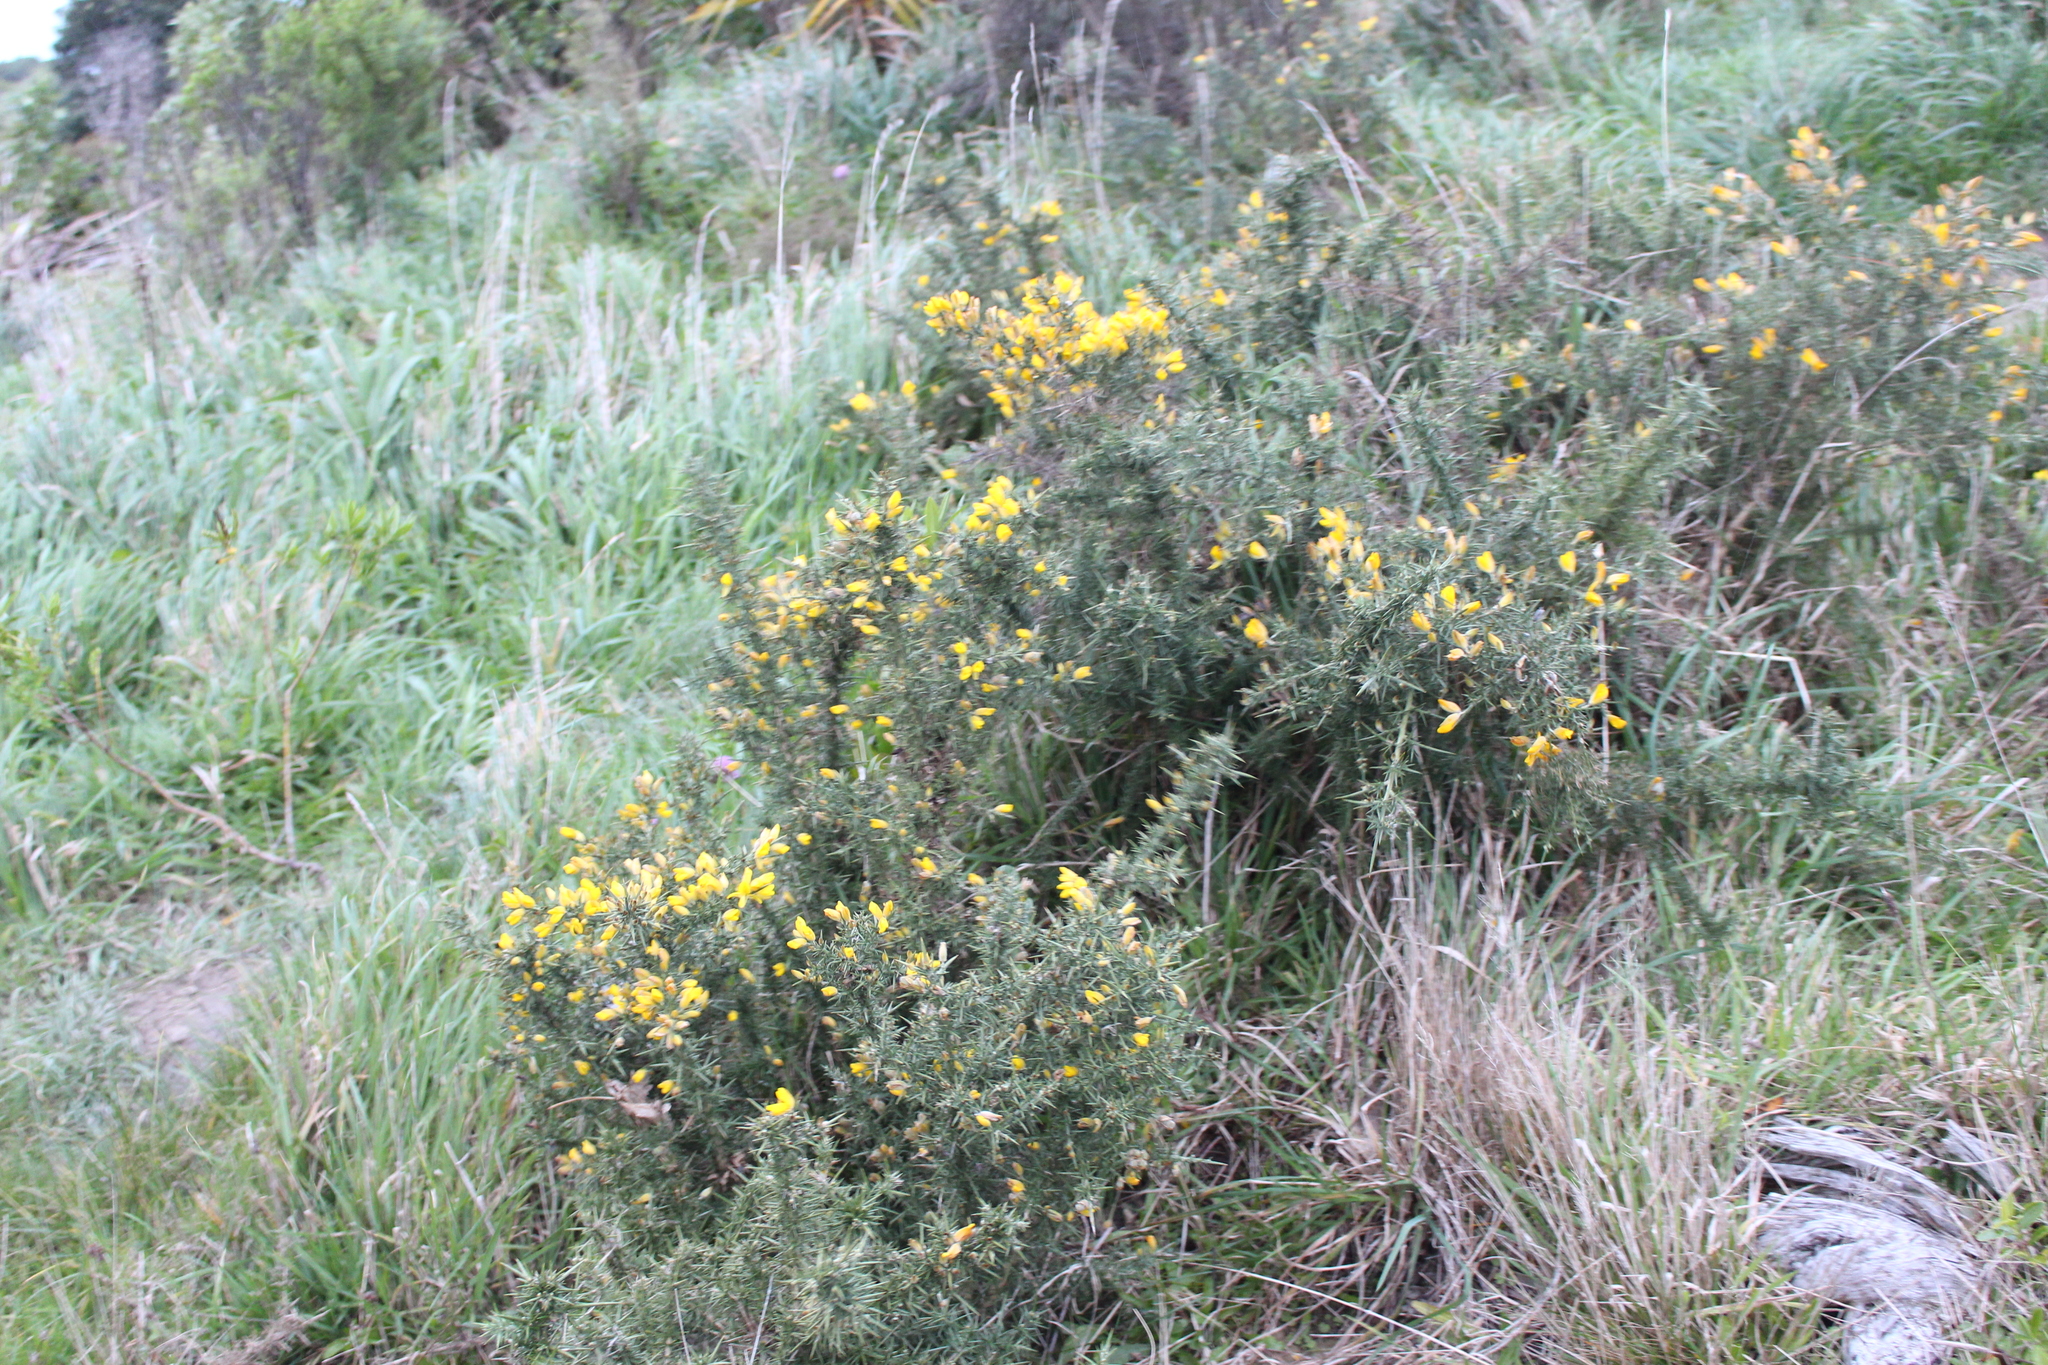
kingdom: Plantae
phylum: Tracheophyta
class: Magnoliopsida
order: Fabales
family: Fabaceae
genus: Ulex
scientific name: Ulex europaeus
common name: Common gorse
